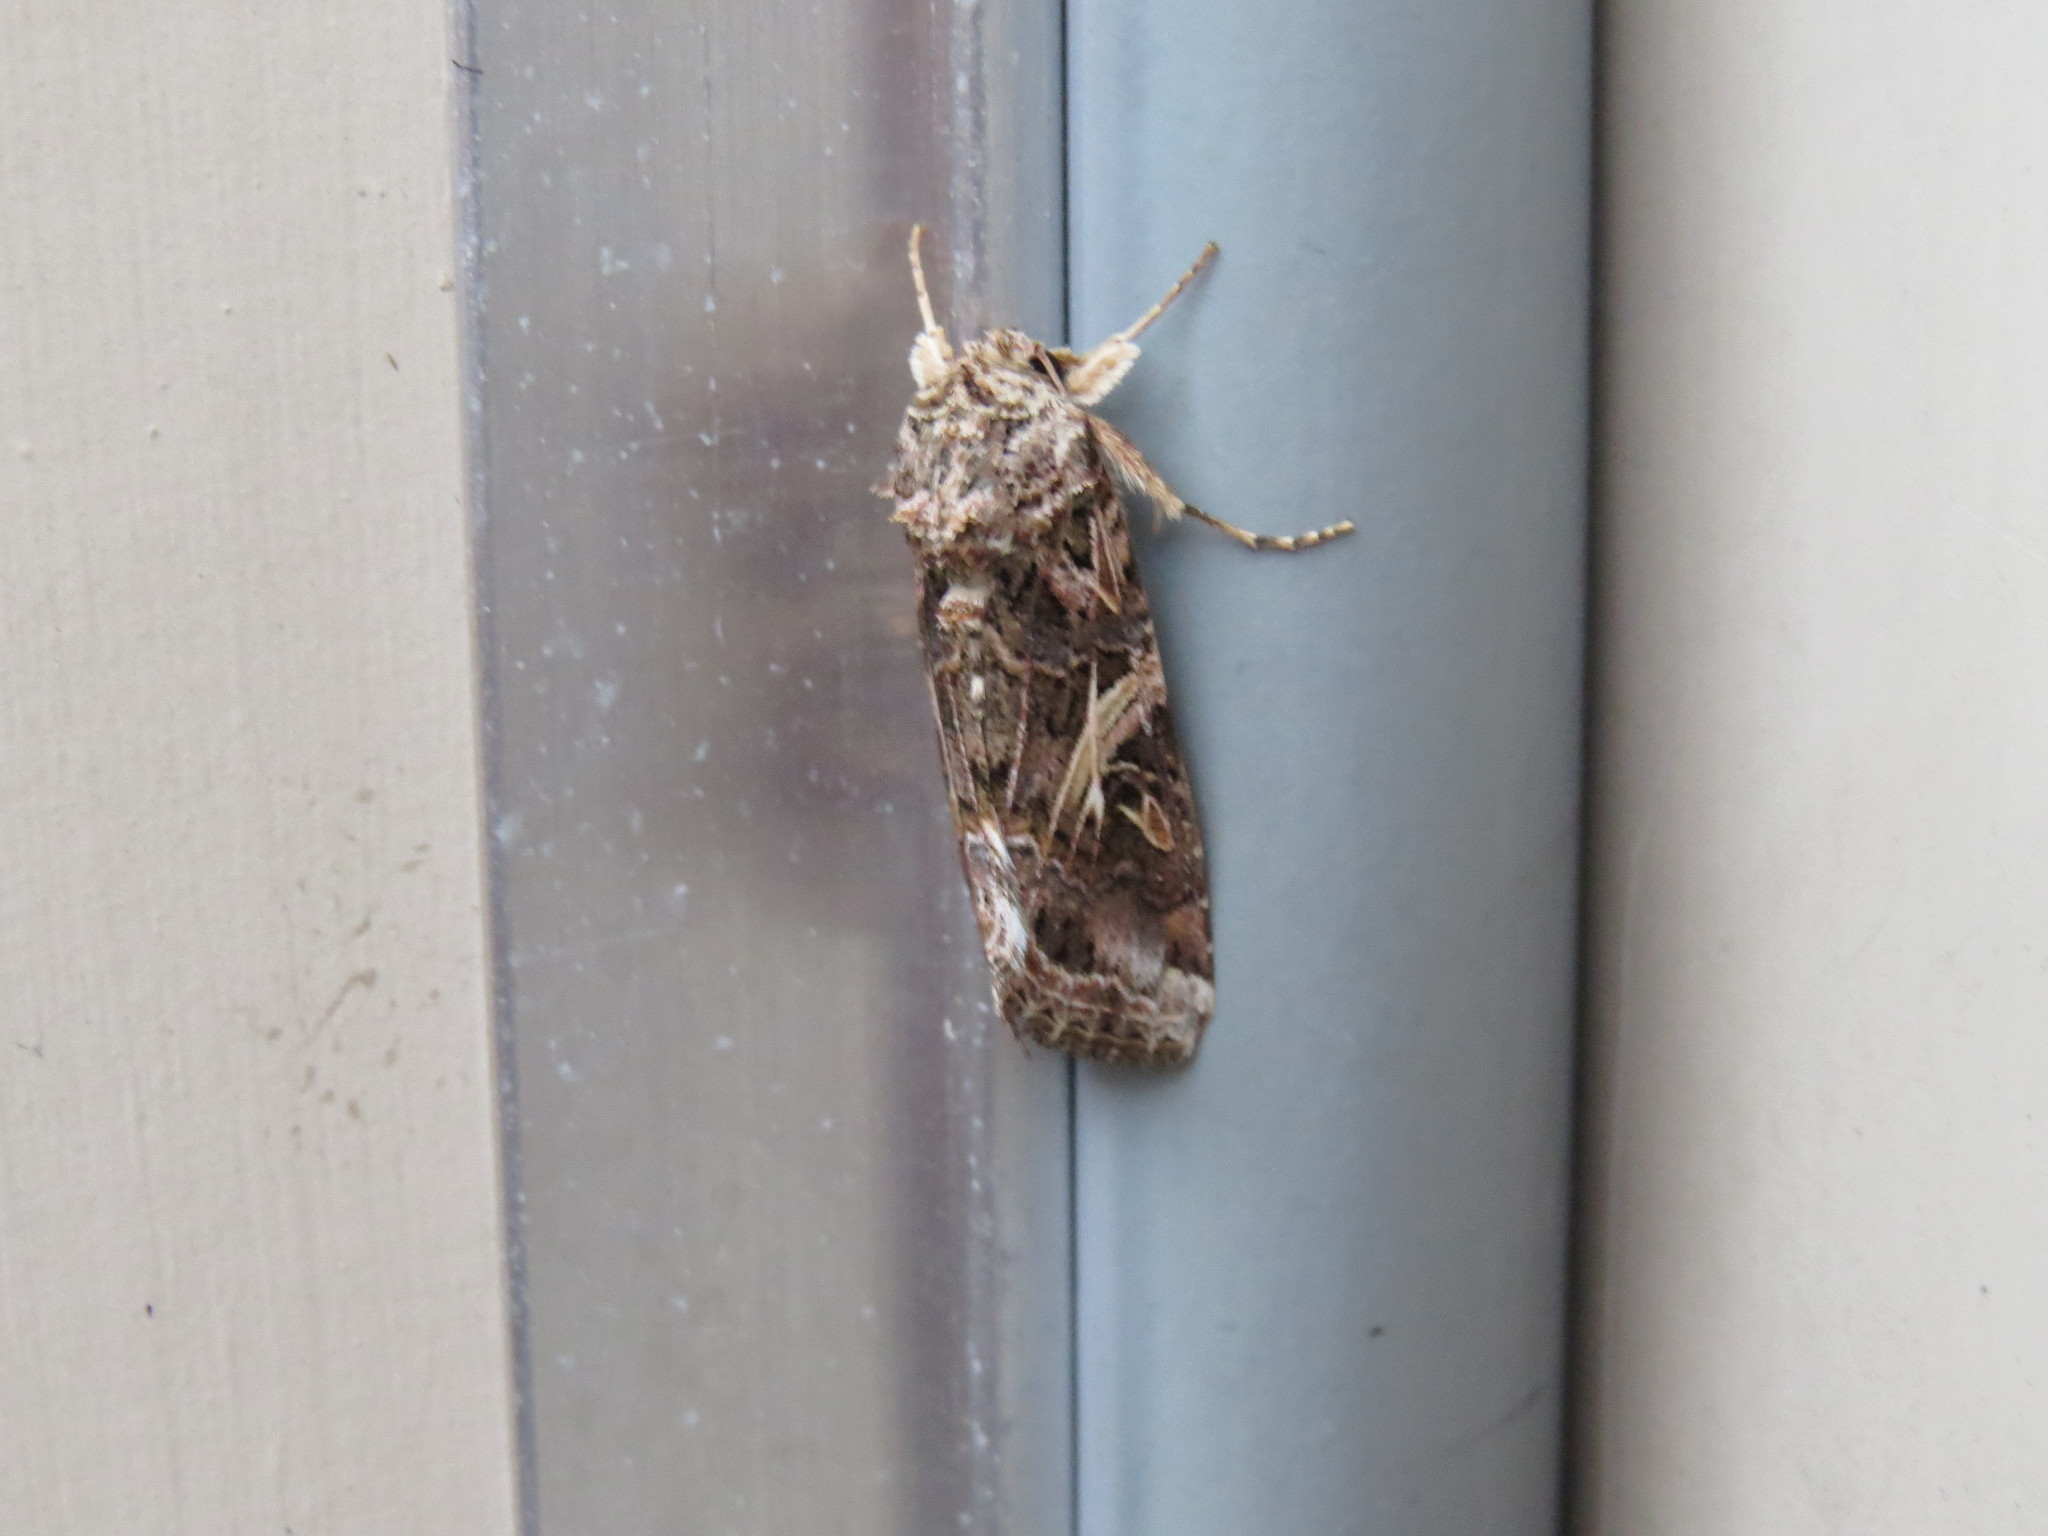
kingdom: Animalia
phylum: Arthropoda
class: Insecta
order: Lepidoptera
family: Noctuidae
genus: Spodoptera
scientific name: Spodoptera ornithogalli
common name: Yellow-striped armyworm
